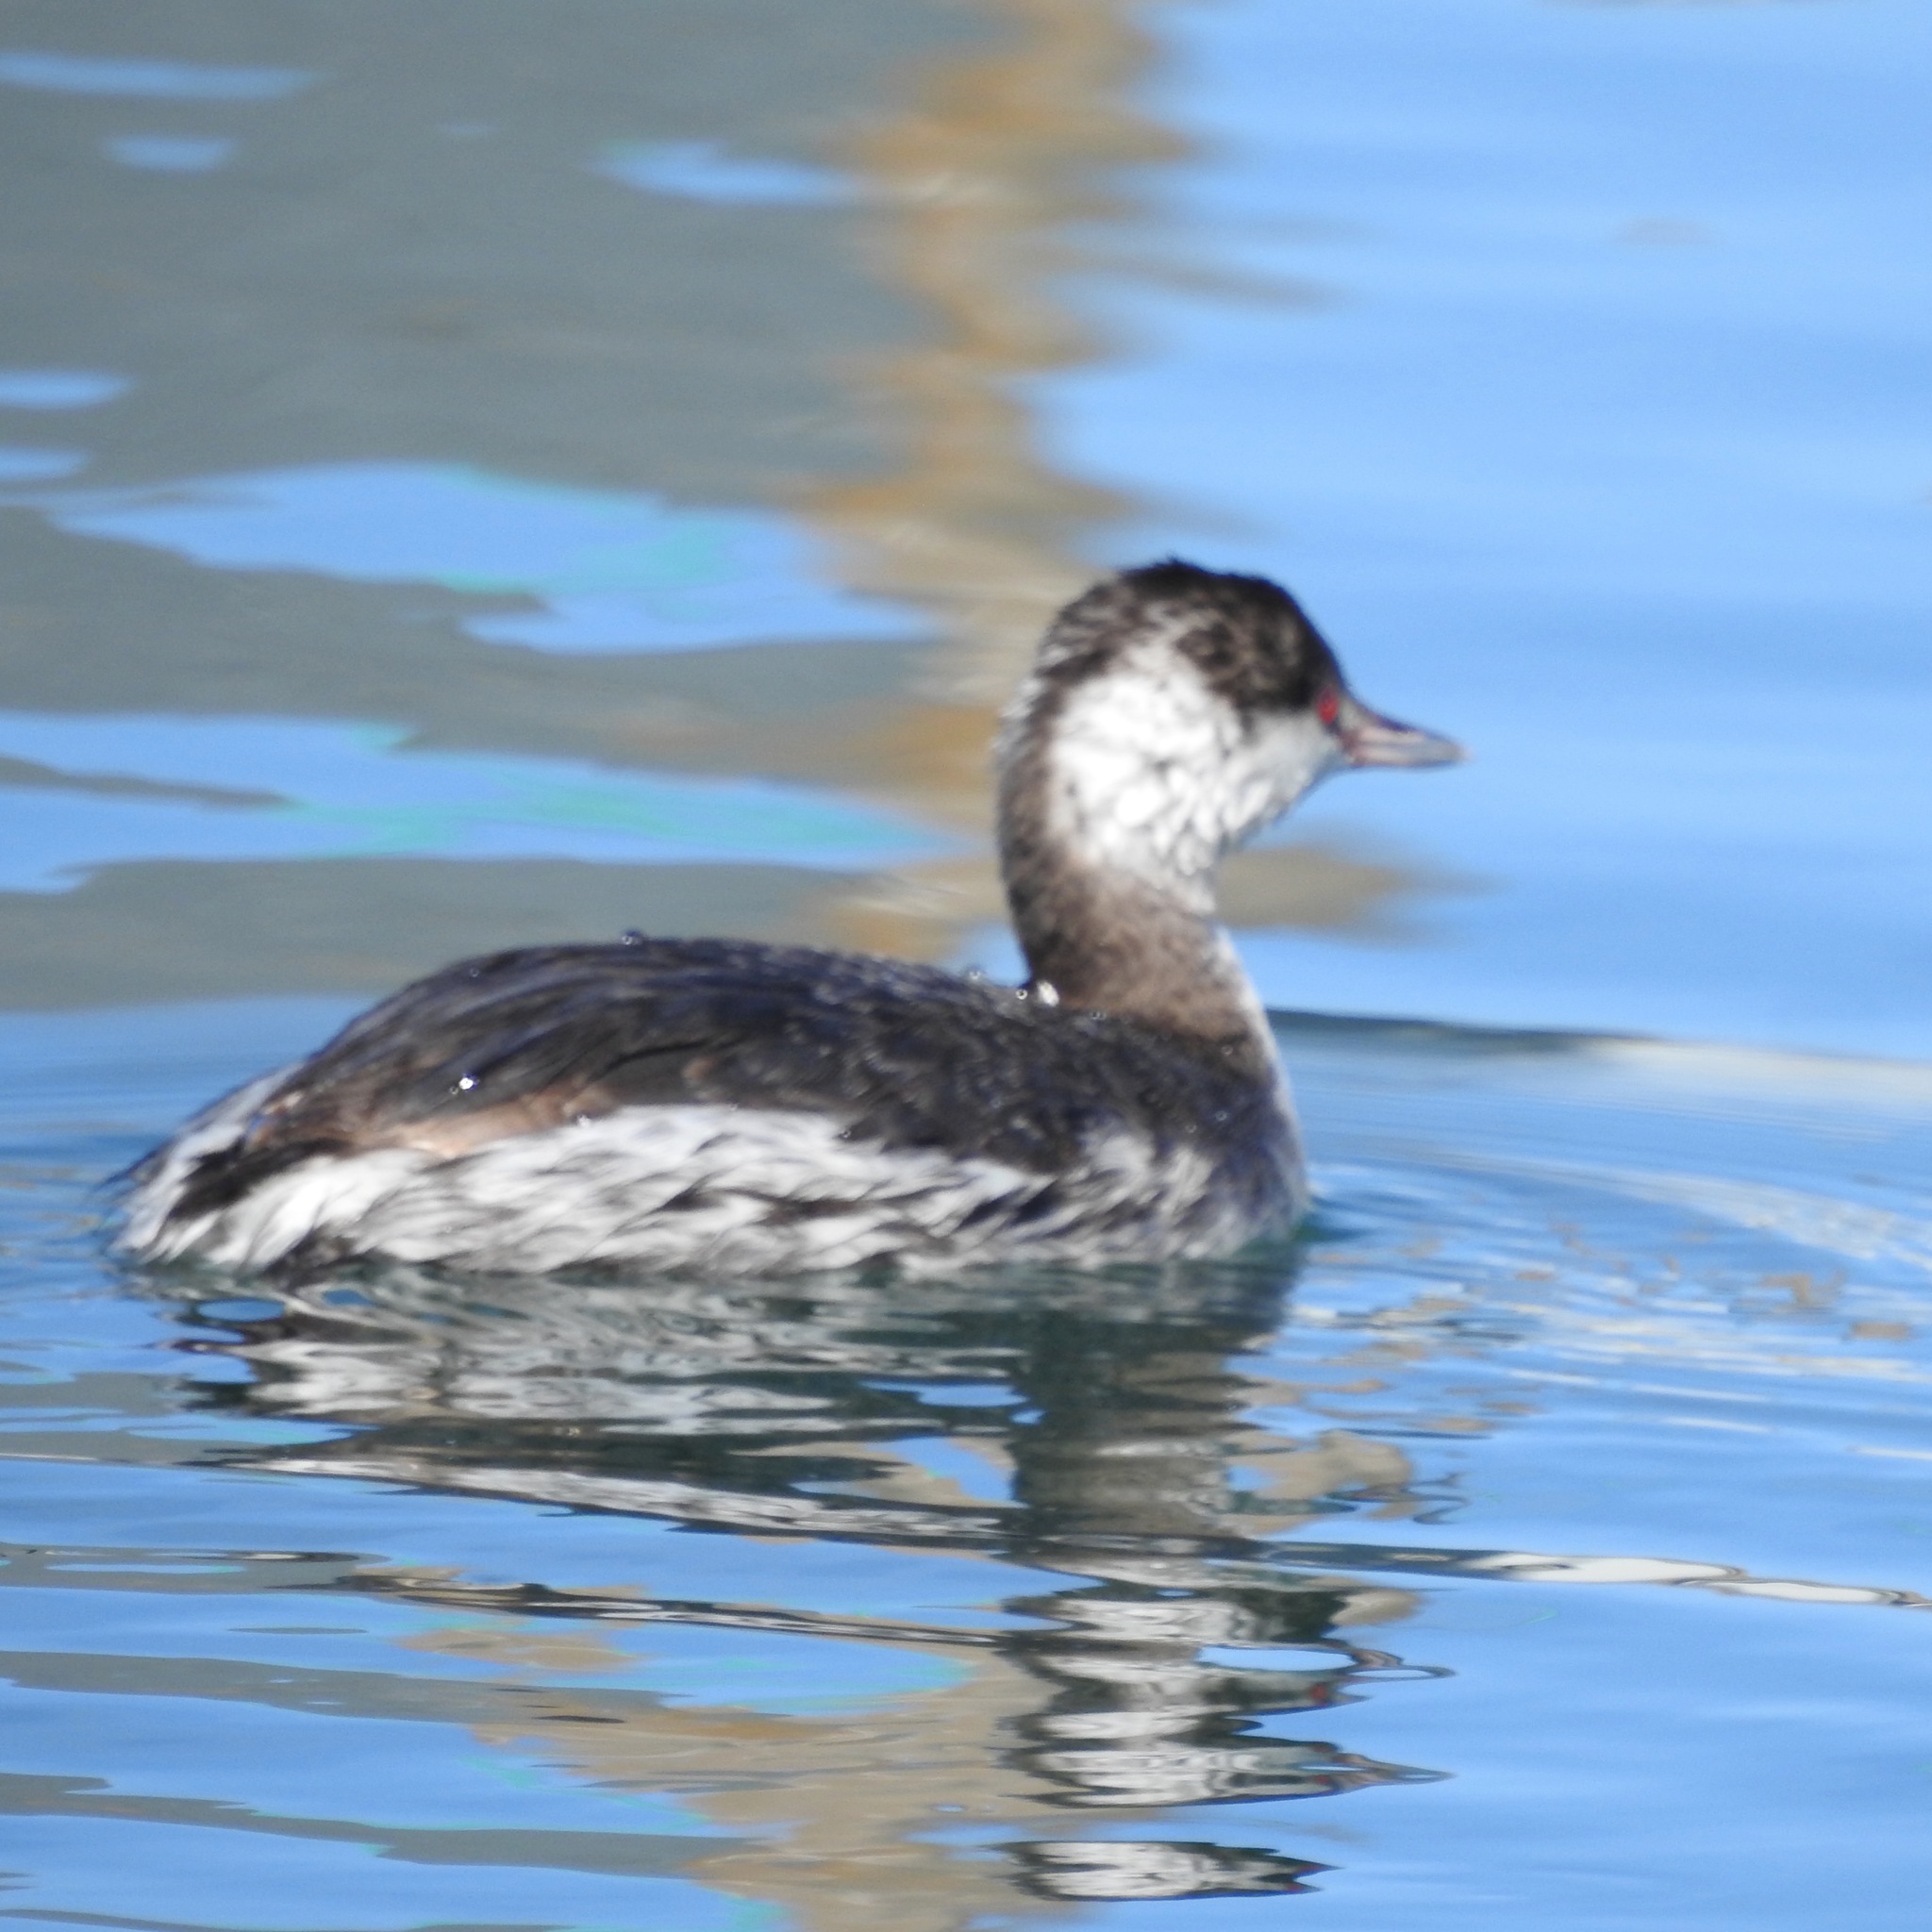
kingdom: Animalia
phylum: Chordata
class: Aves
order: Podicipediformes
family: Podicipedidae
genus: Podiceps
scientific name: Podiceps nigricollis
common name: Black-necked grebe
